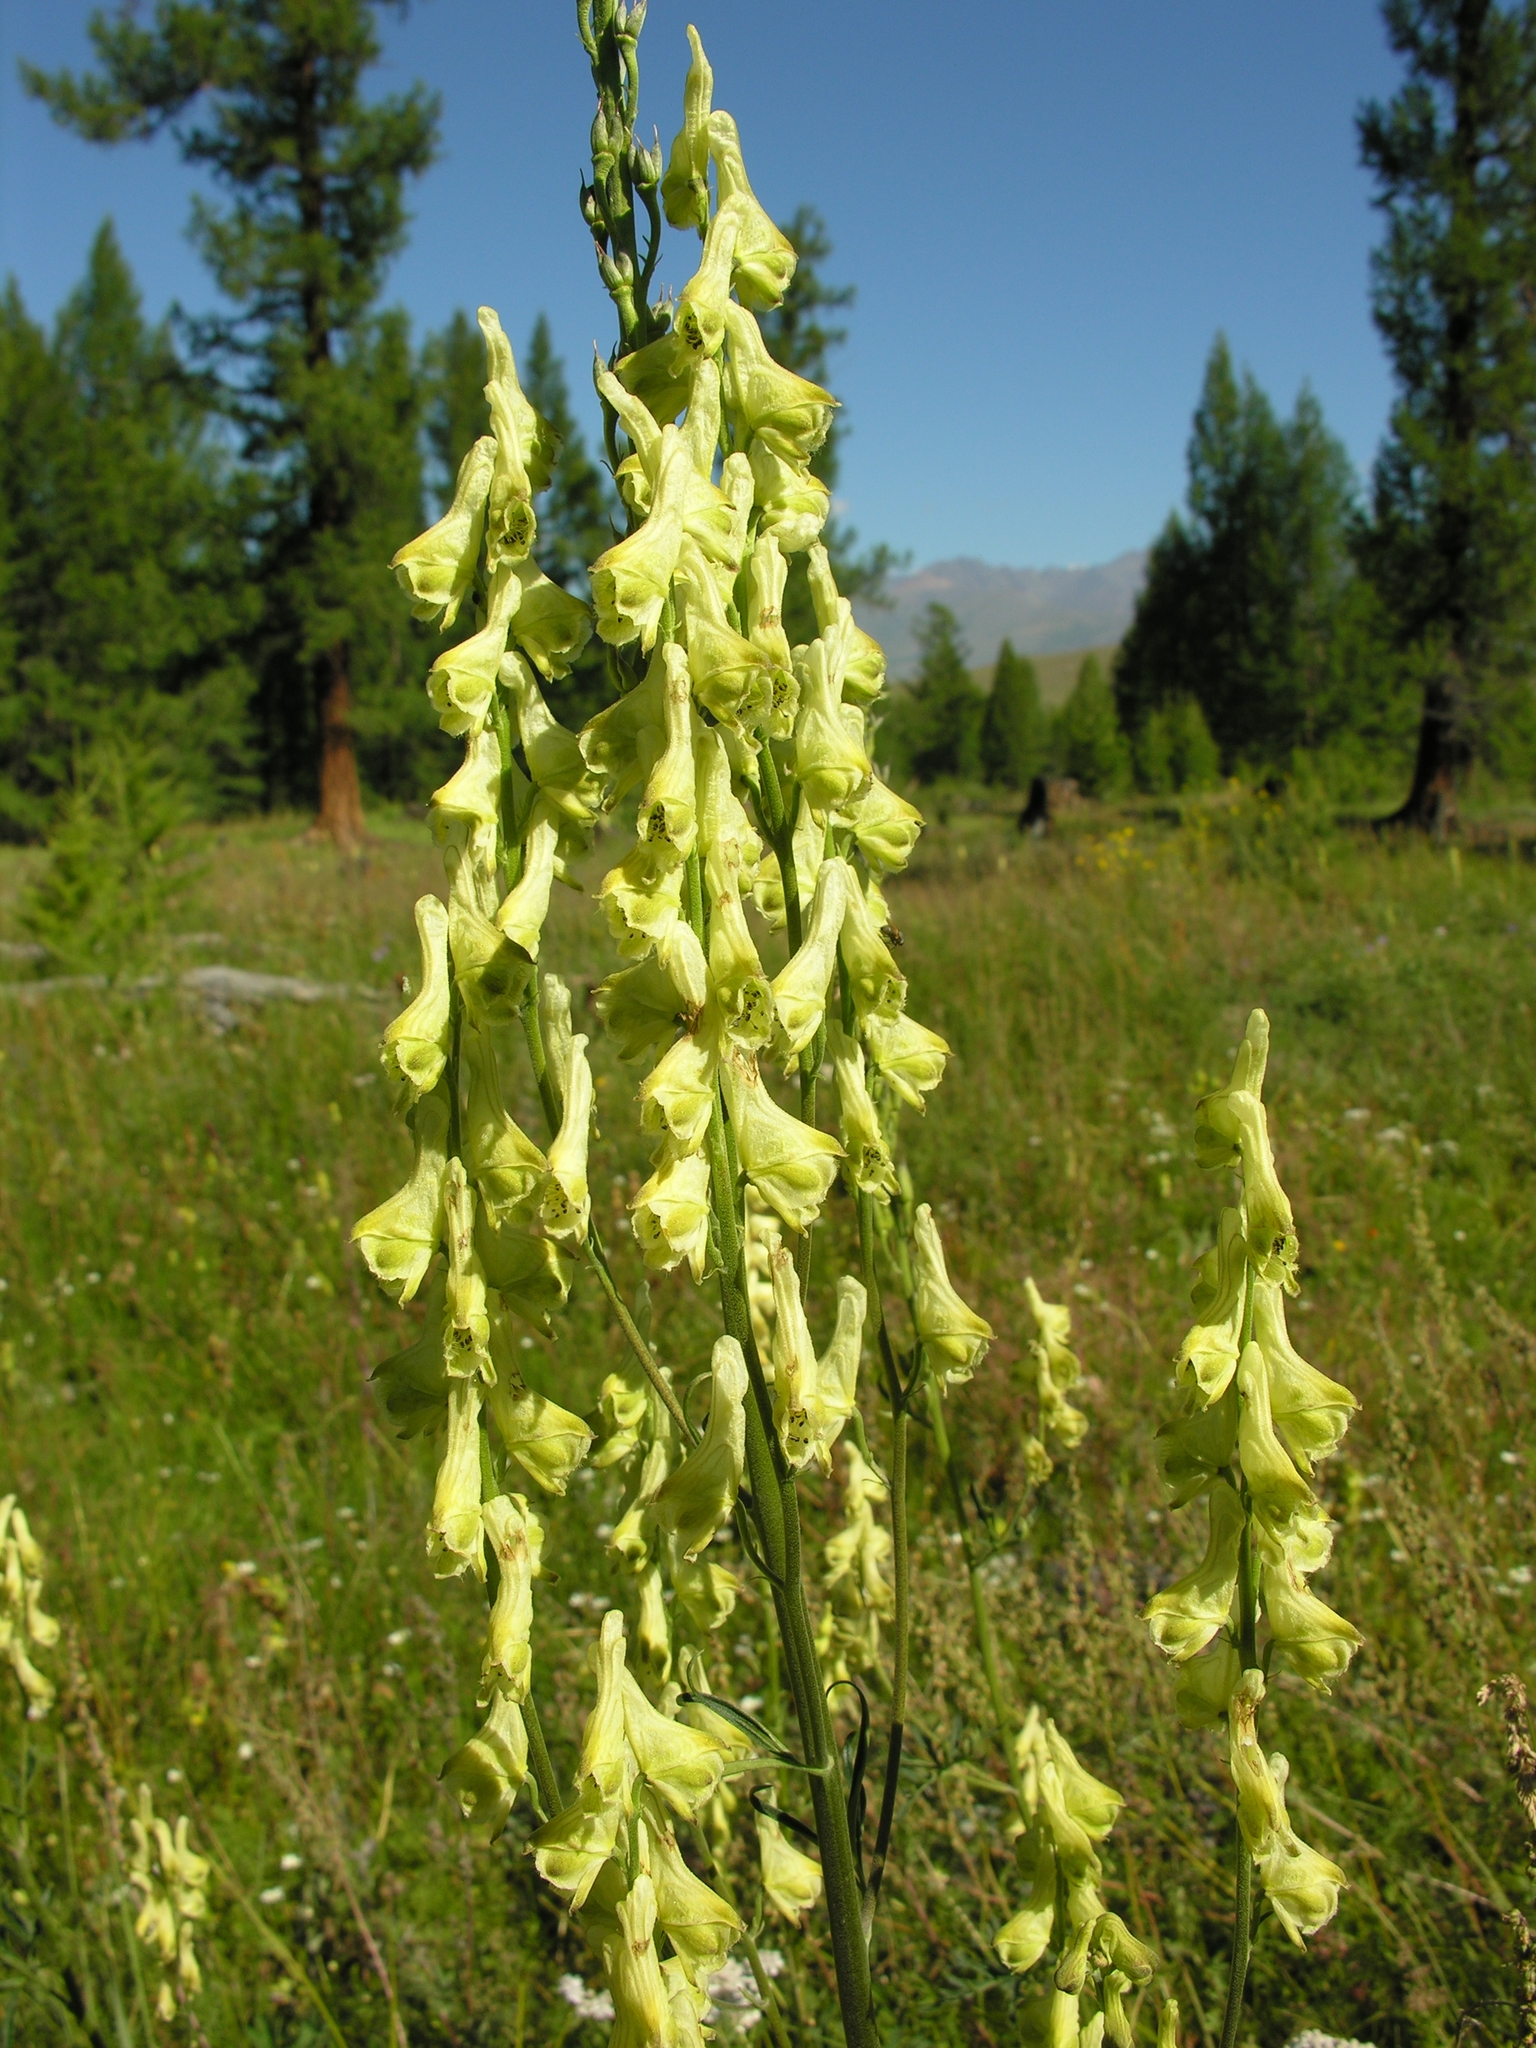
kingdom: Plantae
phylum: Tracheophyta
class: Magnoliopsida
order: Ranunculales
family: Ranunculaceae
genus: Aconitum
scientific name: Aconitum barbatum
